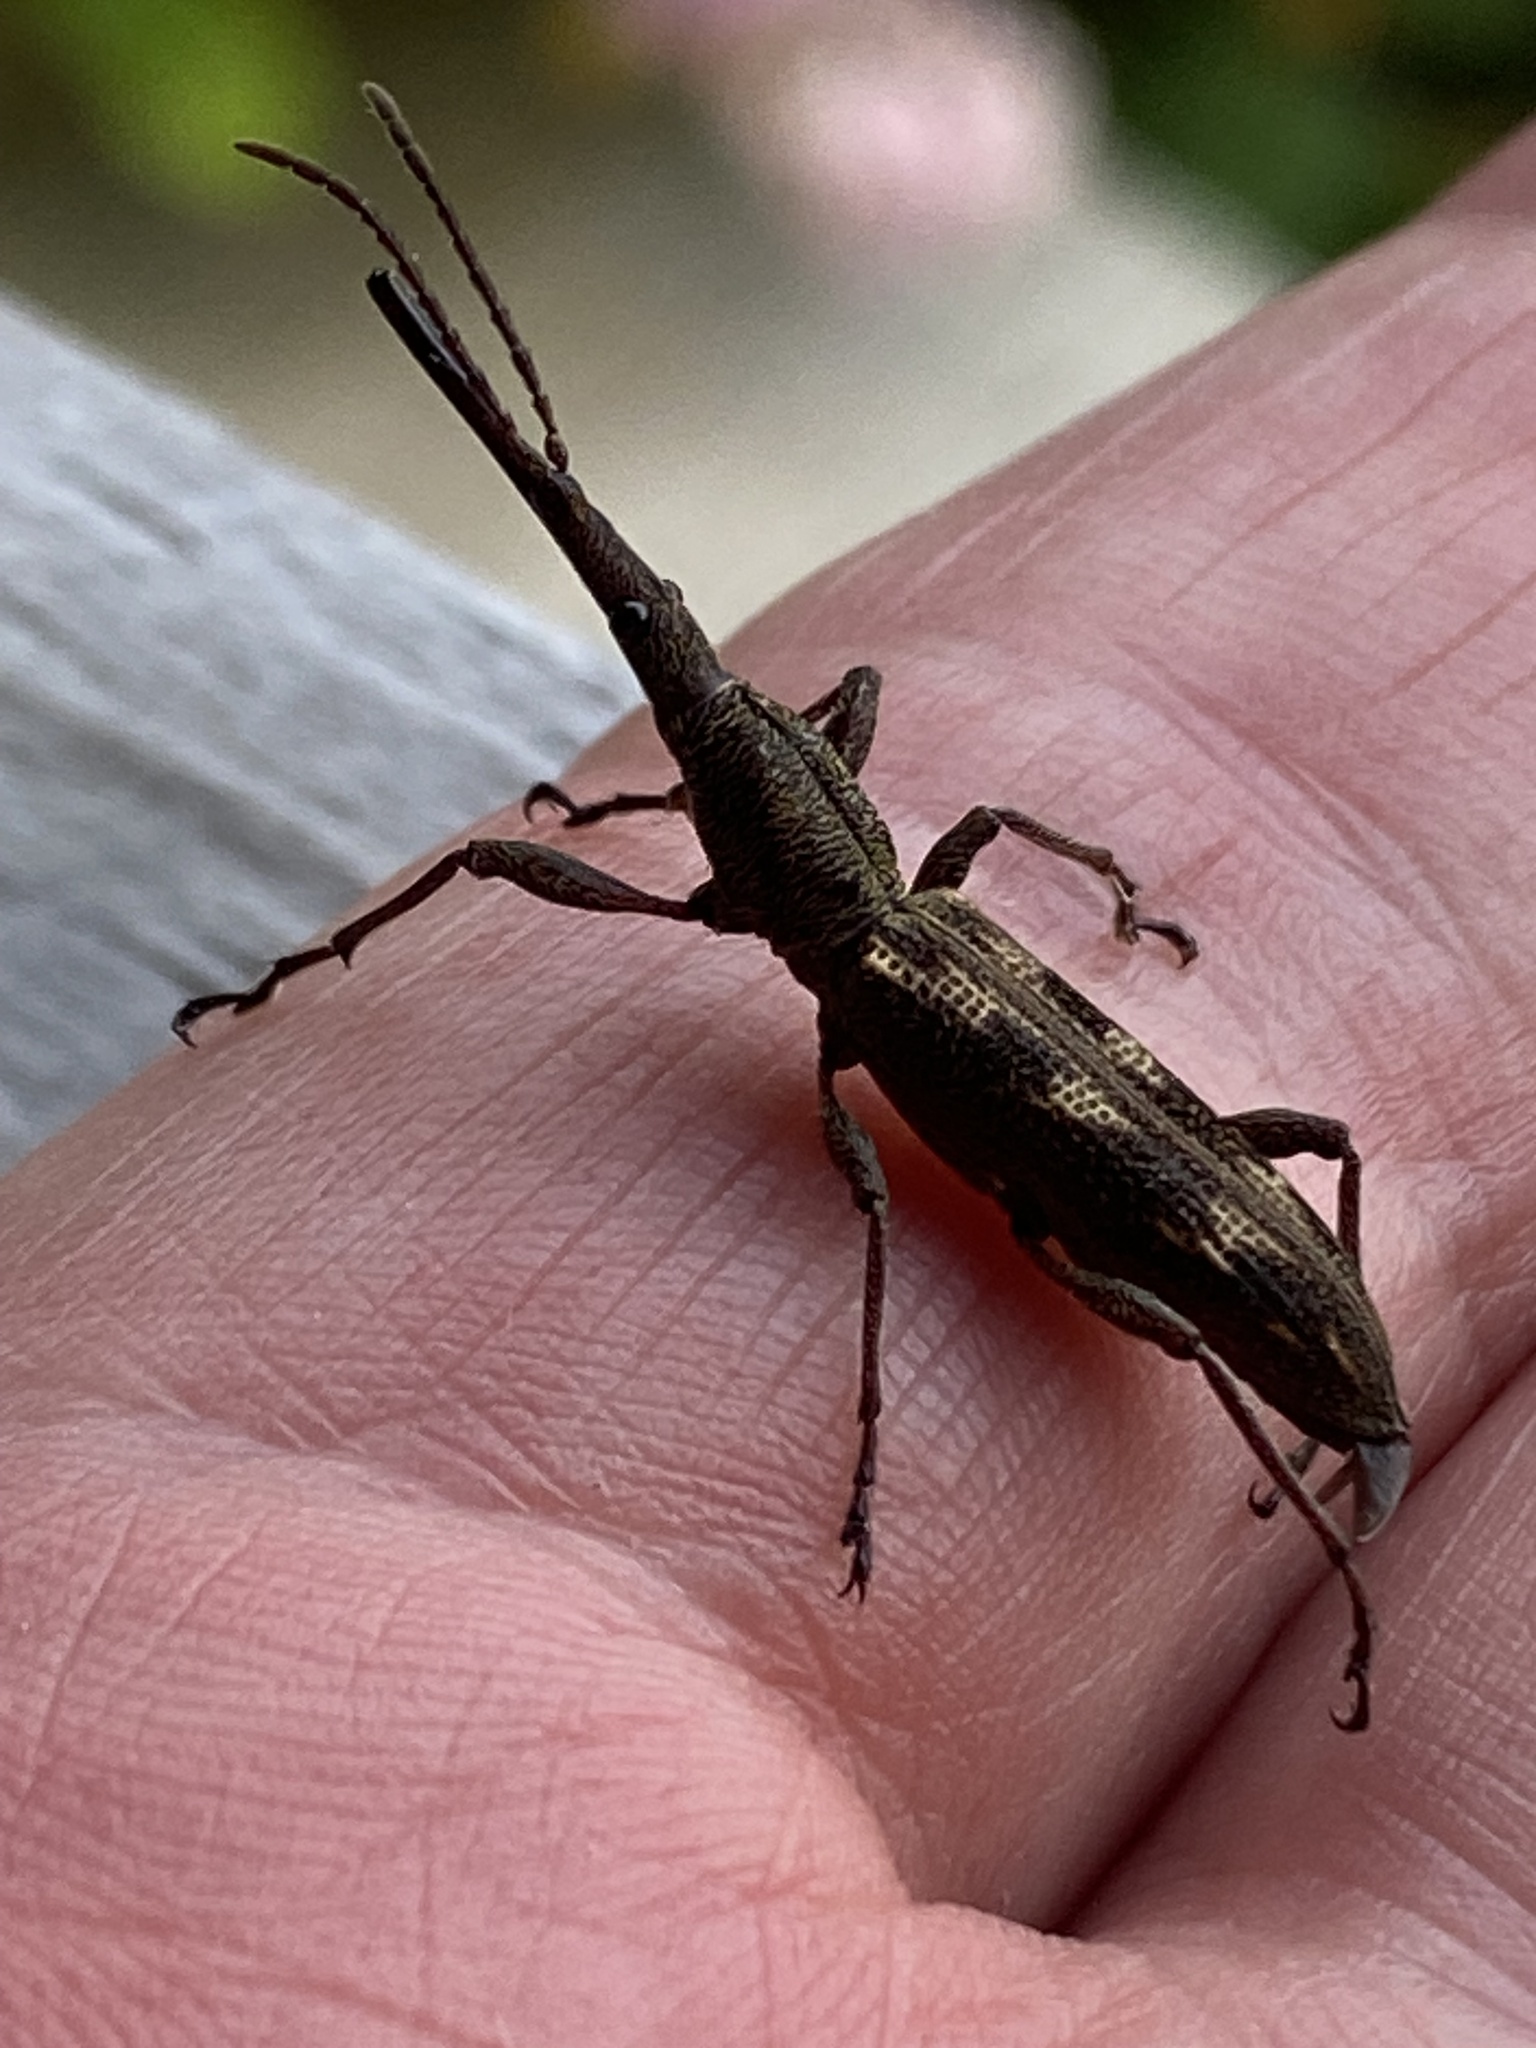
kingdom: Animalia
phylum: Arthropoda
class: Insecta
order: Coleoptera
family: Brentidae
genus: Lasiorhynchus
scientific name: Lasiorhynchus barbicornis
